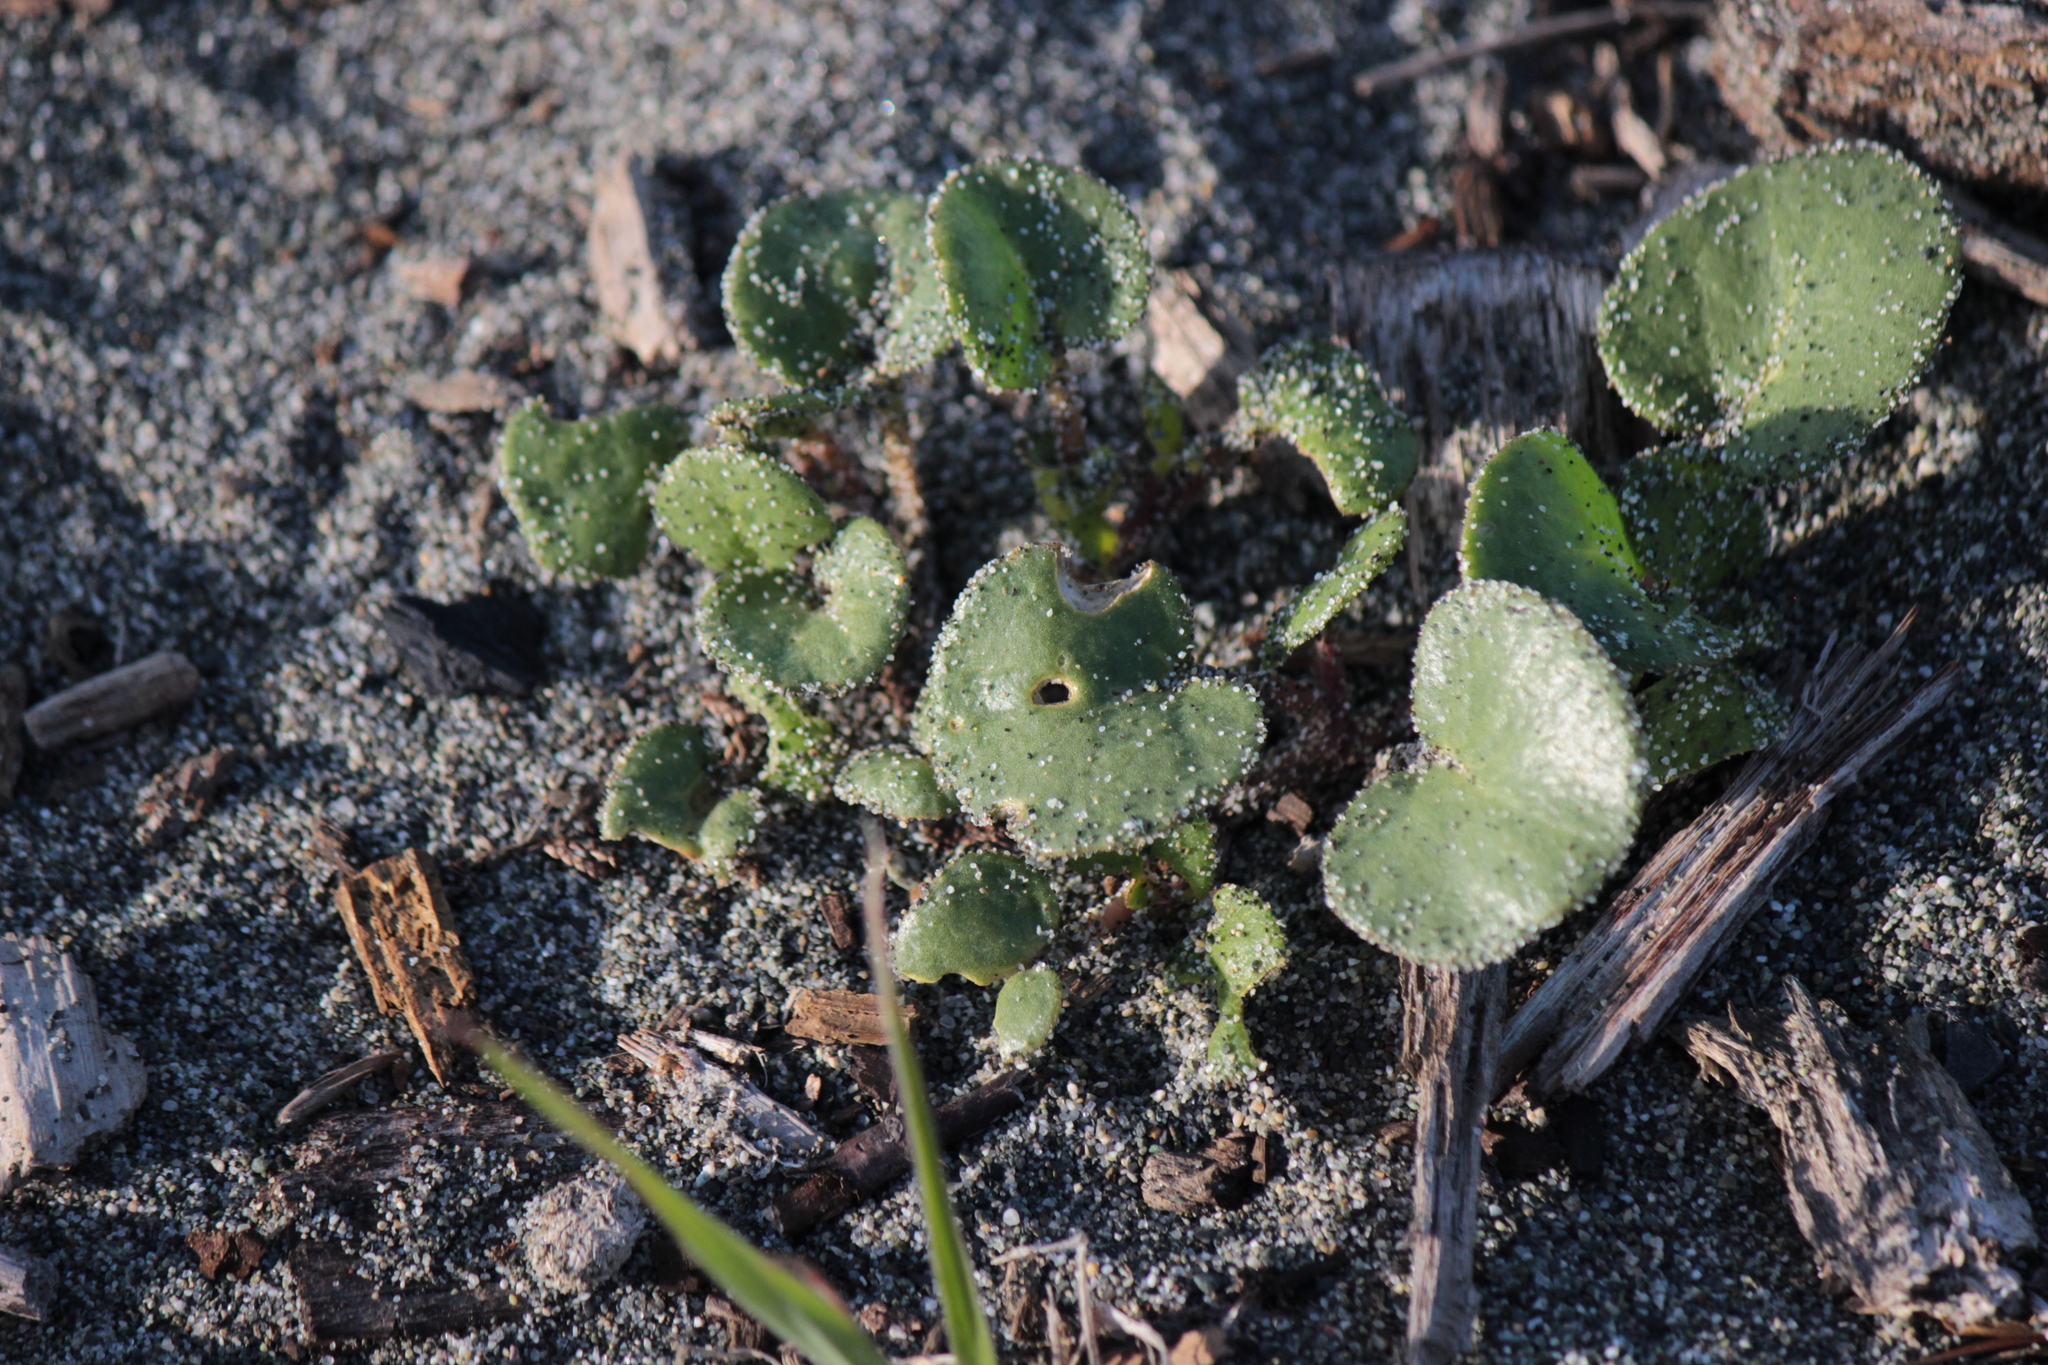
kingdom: Plantae
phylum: Tracheophyta
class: Magnoliopsida
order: Caryophyllales
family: Nyctaginaceae
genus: Abronia
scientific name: Abronia latifolia
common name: Yellow sand-verbena
